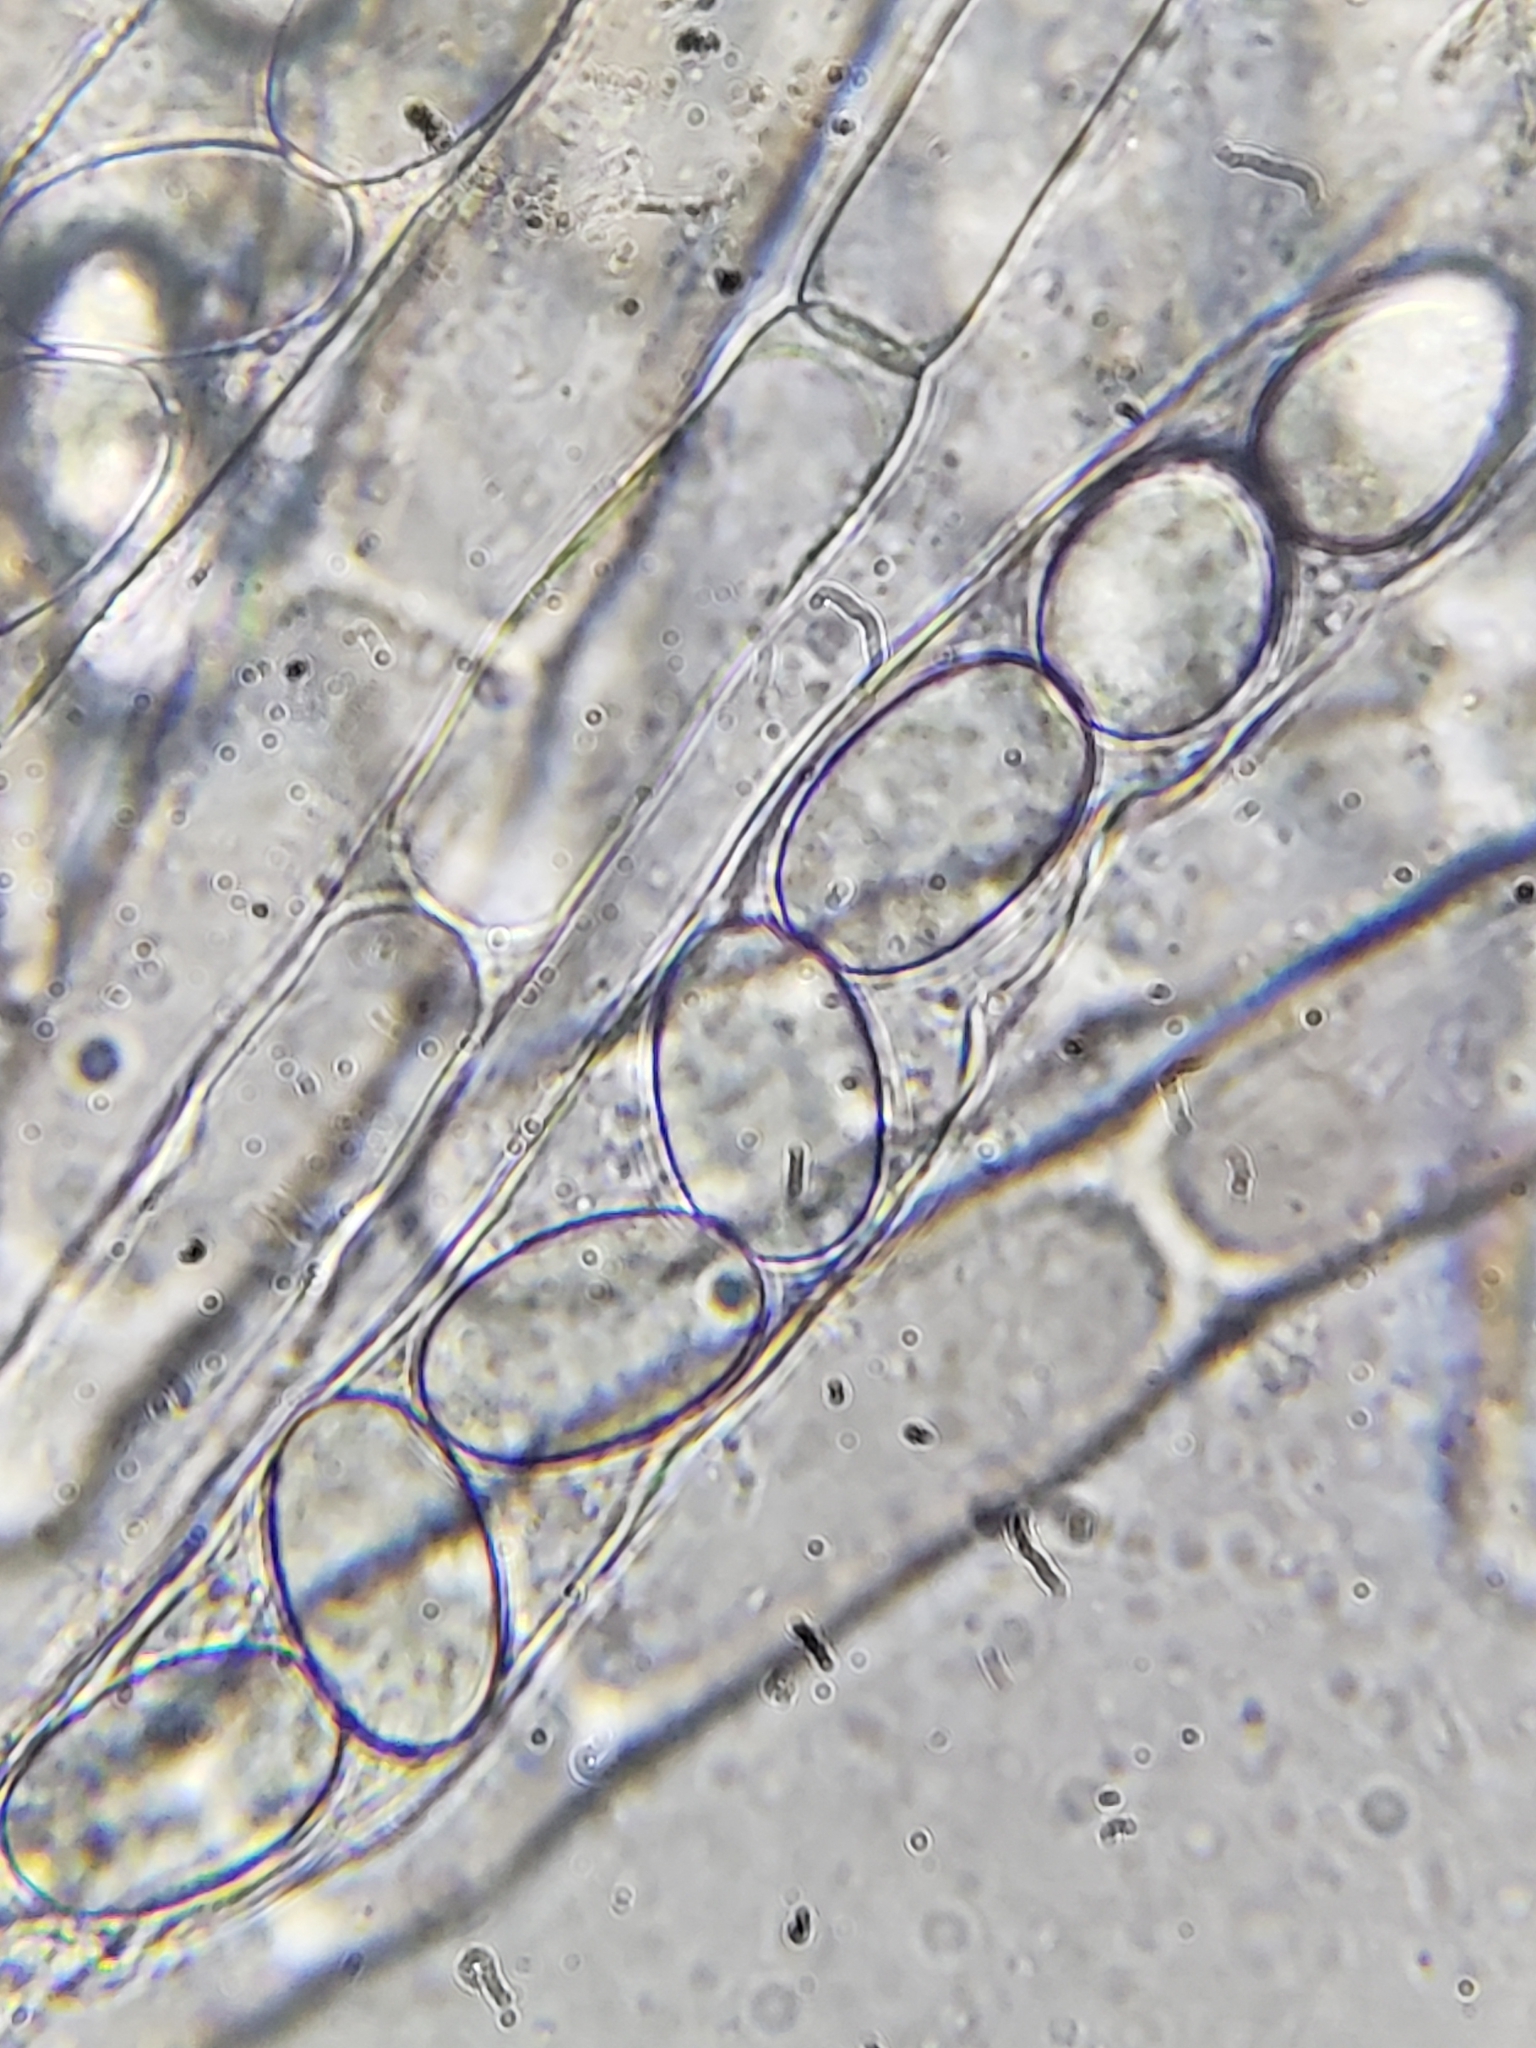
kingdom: Fungi
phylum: Ascomycota
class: Pezizomycetes
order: Pezizales
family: Morchellaceae
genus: Morchella
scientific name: Morchella americana
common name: White morel
